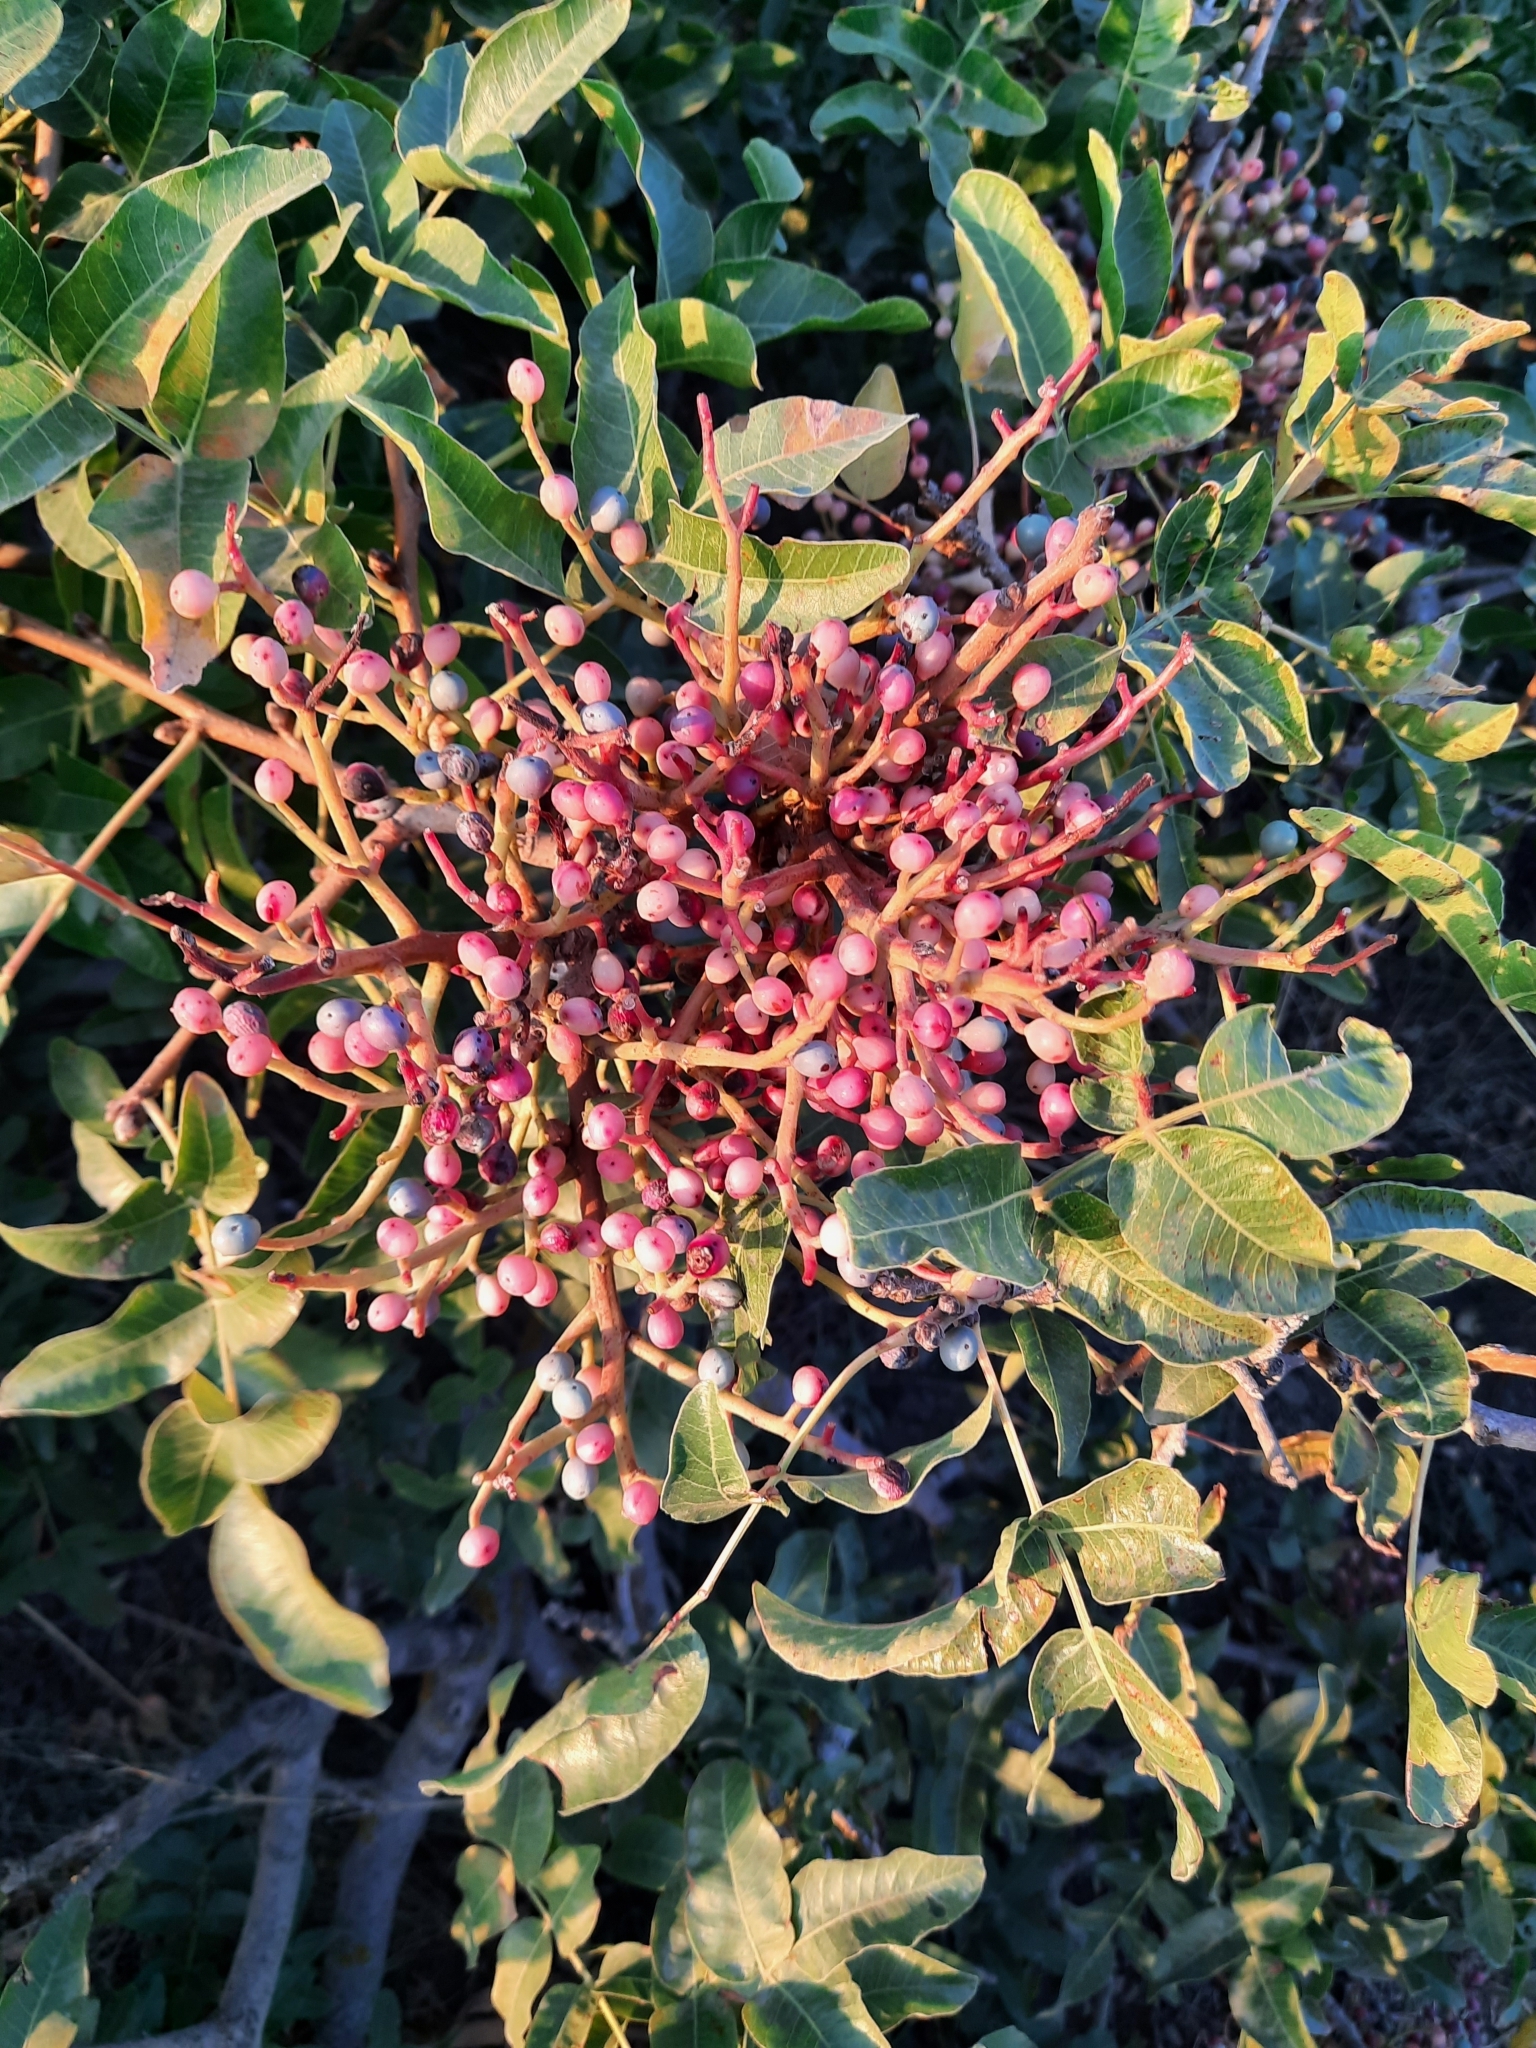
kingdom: Plantae
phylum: Tracheophyta
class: Magnoliopsida
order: Sapindales
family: Anacardiaceae
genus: Pistacia
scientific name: Pistacia atlantica
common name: Mt. atlas mastic tree
